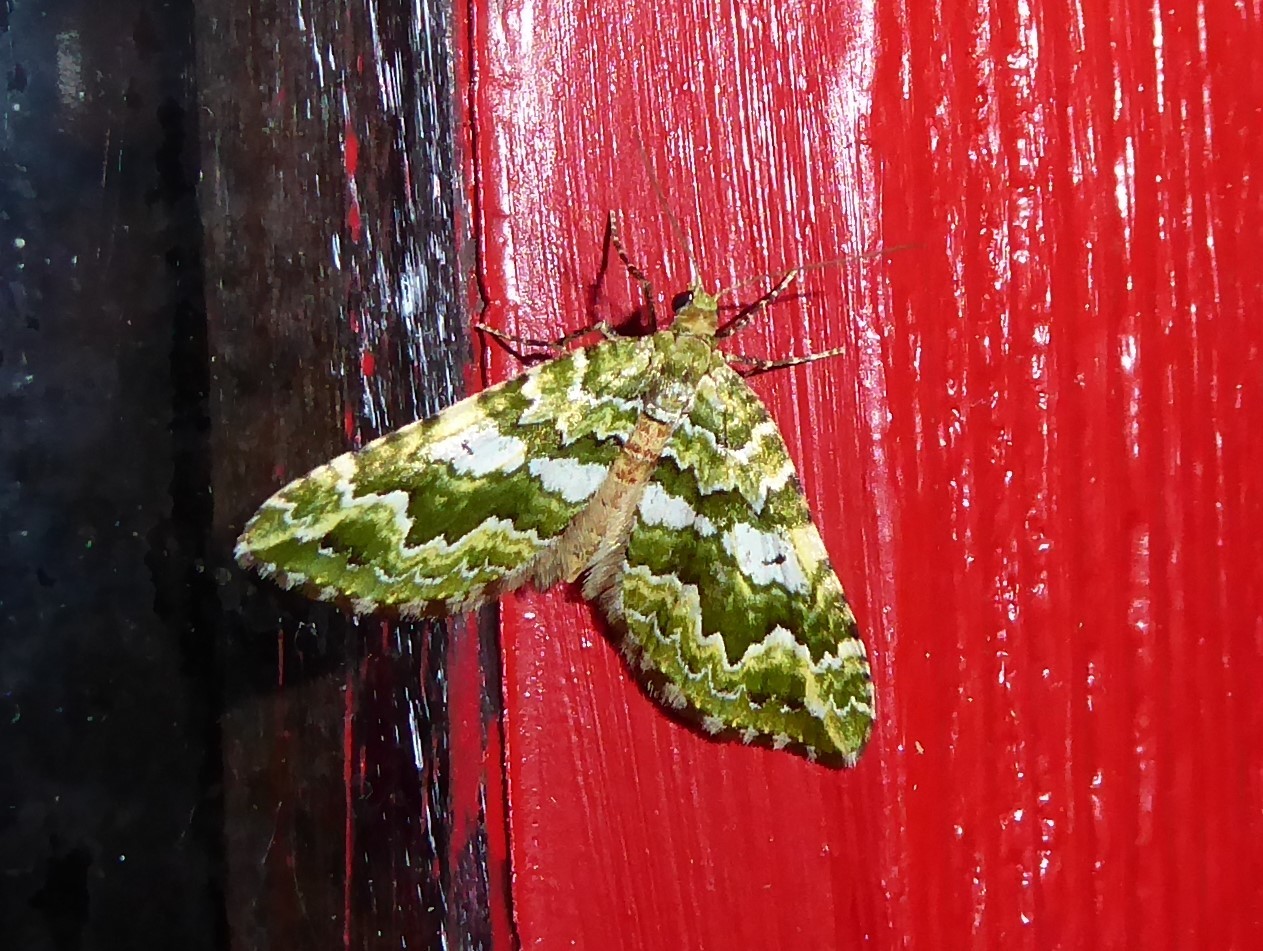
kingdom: Animalia
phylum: Arthropoda
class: Insecta
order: Lepidoptera
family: Geometridae
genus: Asaphodes
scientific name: Asaphodes beata
